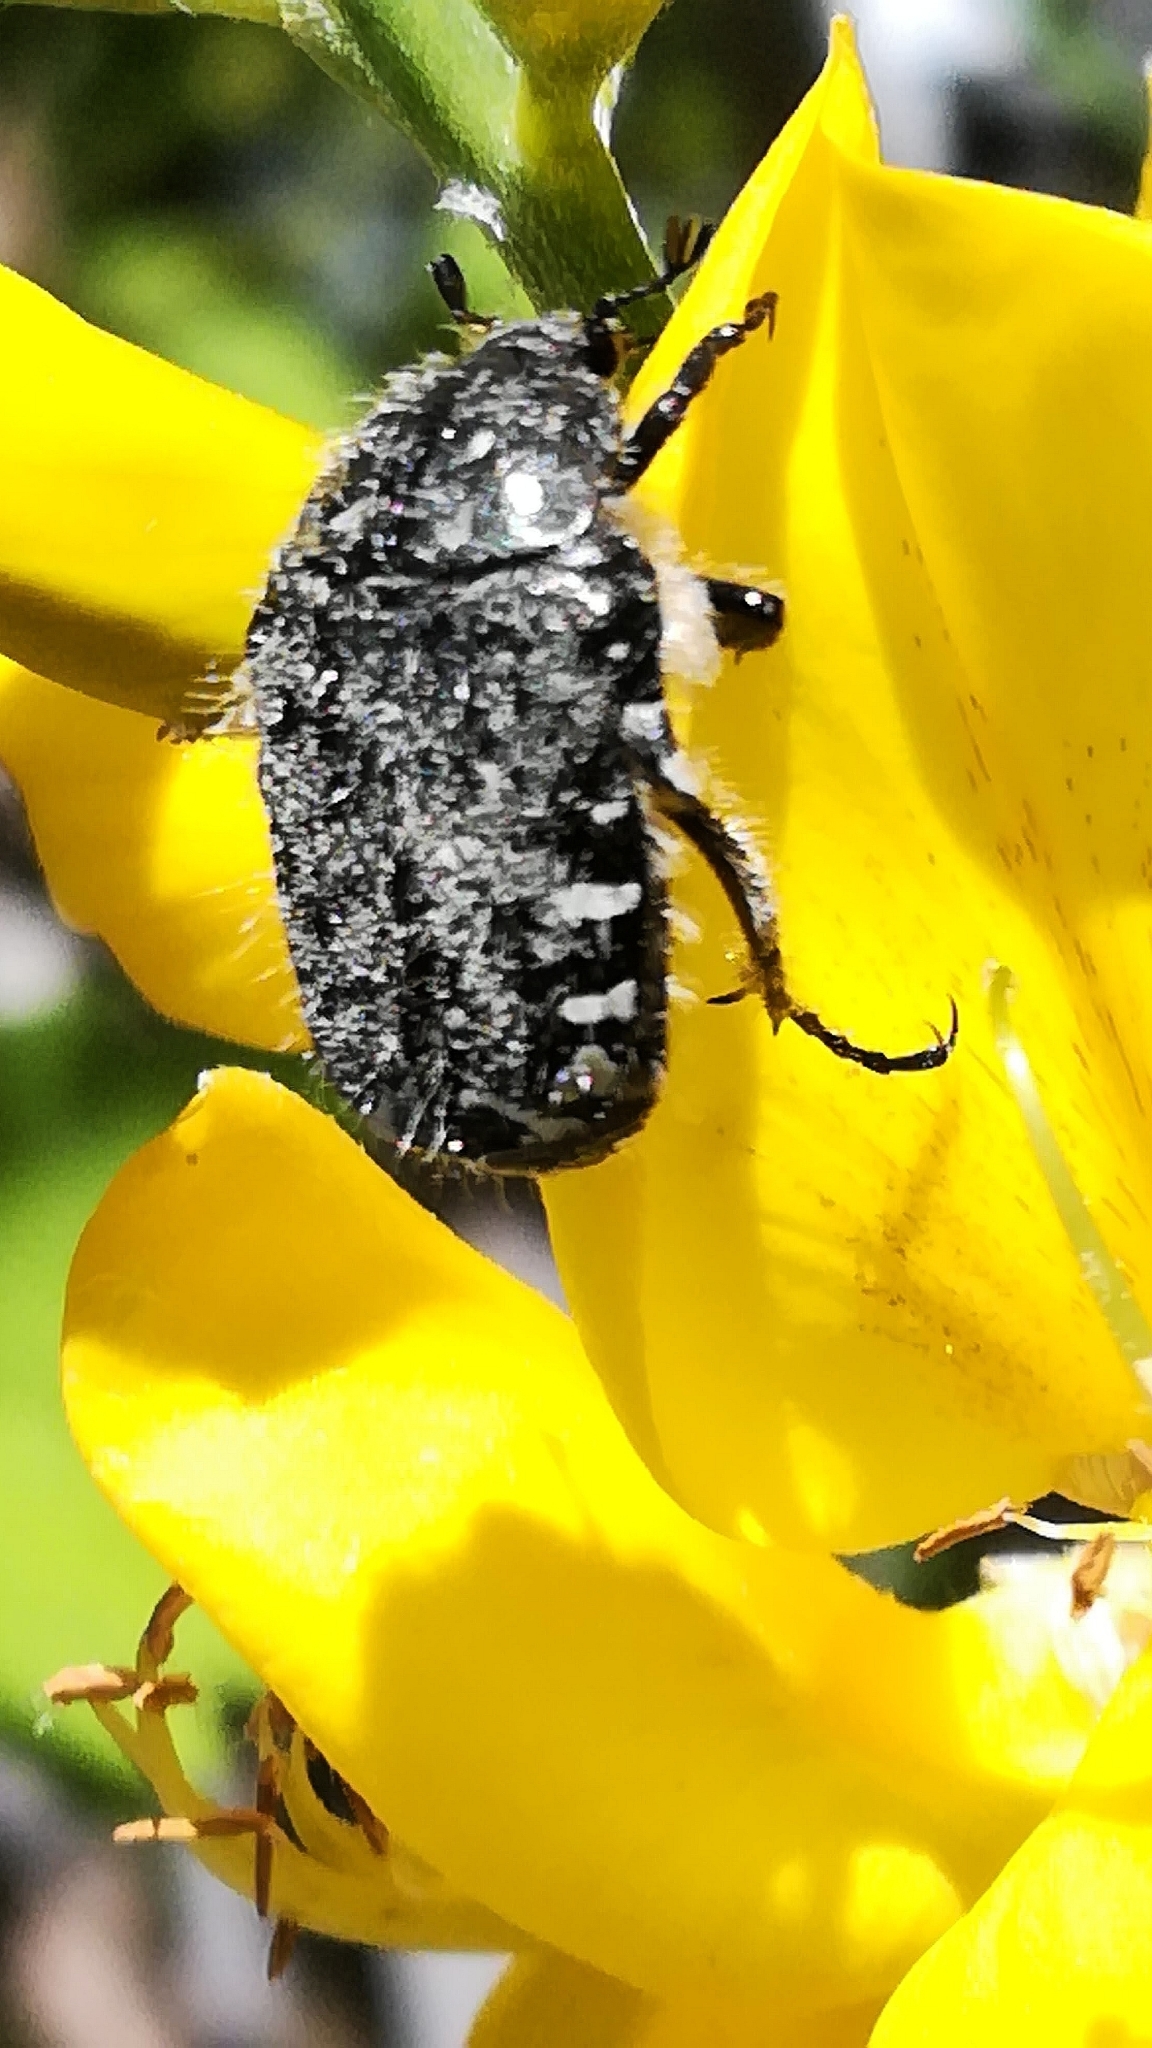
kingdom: Animalia
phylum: Arthropoda
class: Insecta
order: Coleoptera
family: Scarabaeidae
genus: Oxythyrea
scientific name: Oxythyrea funesta
